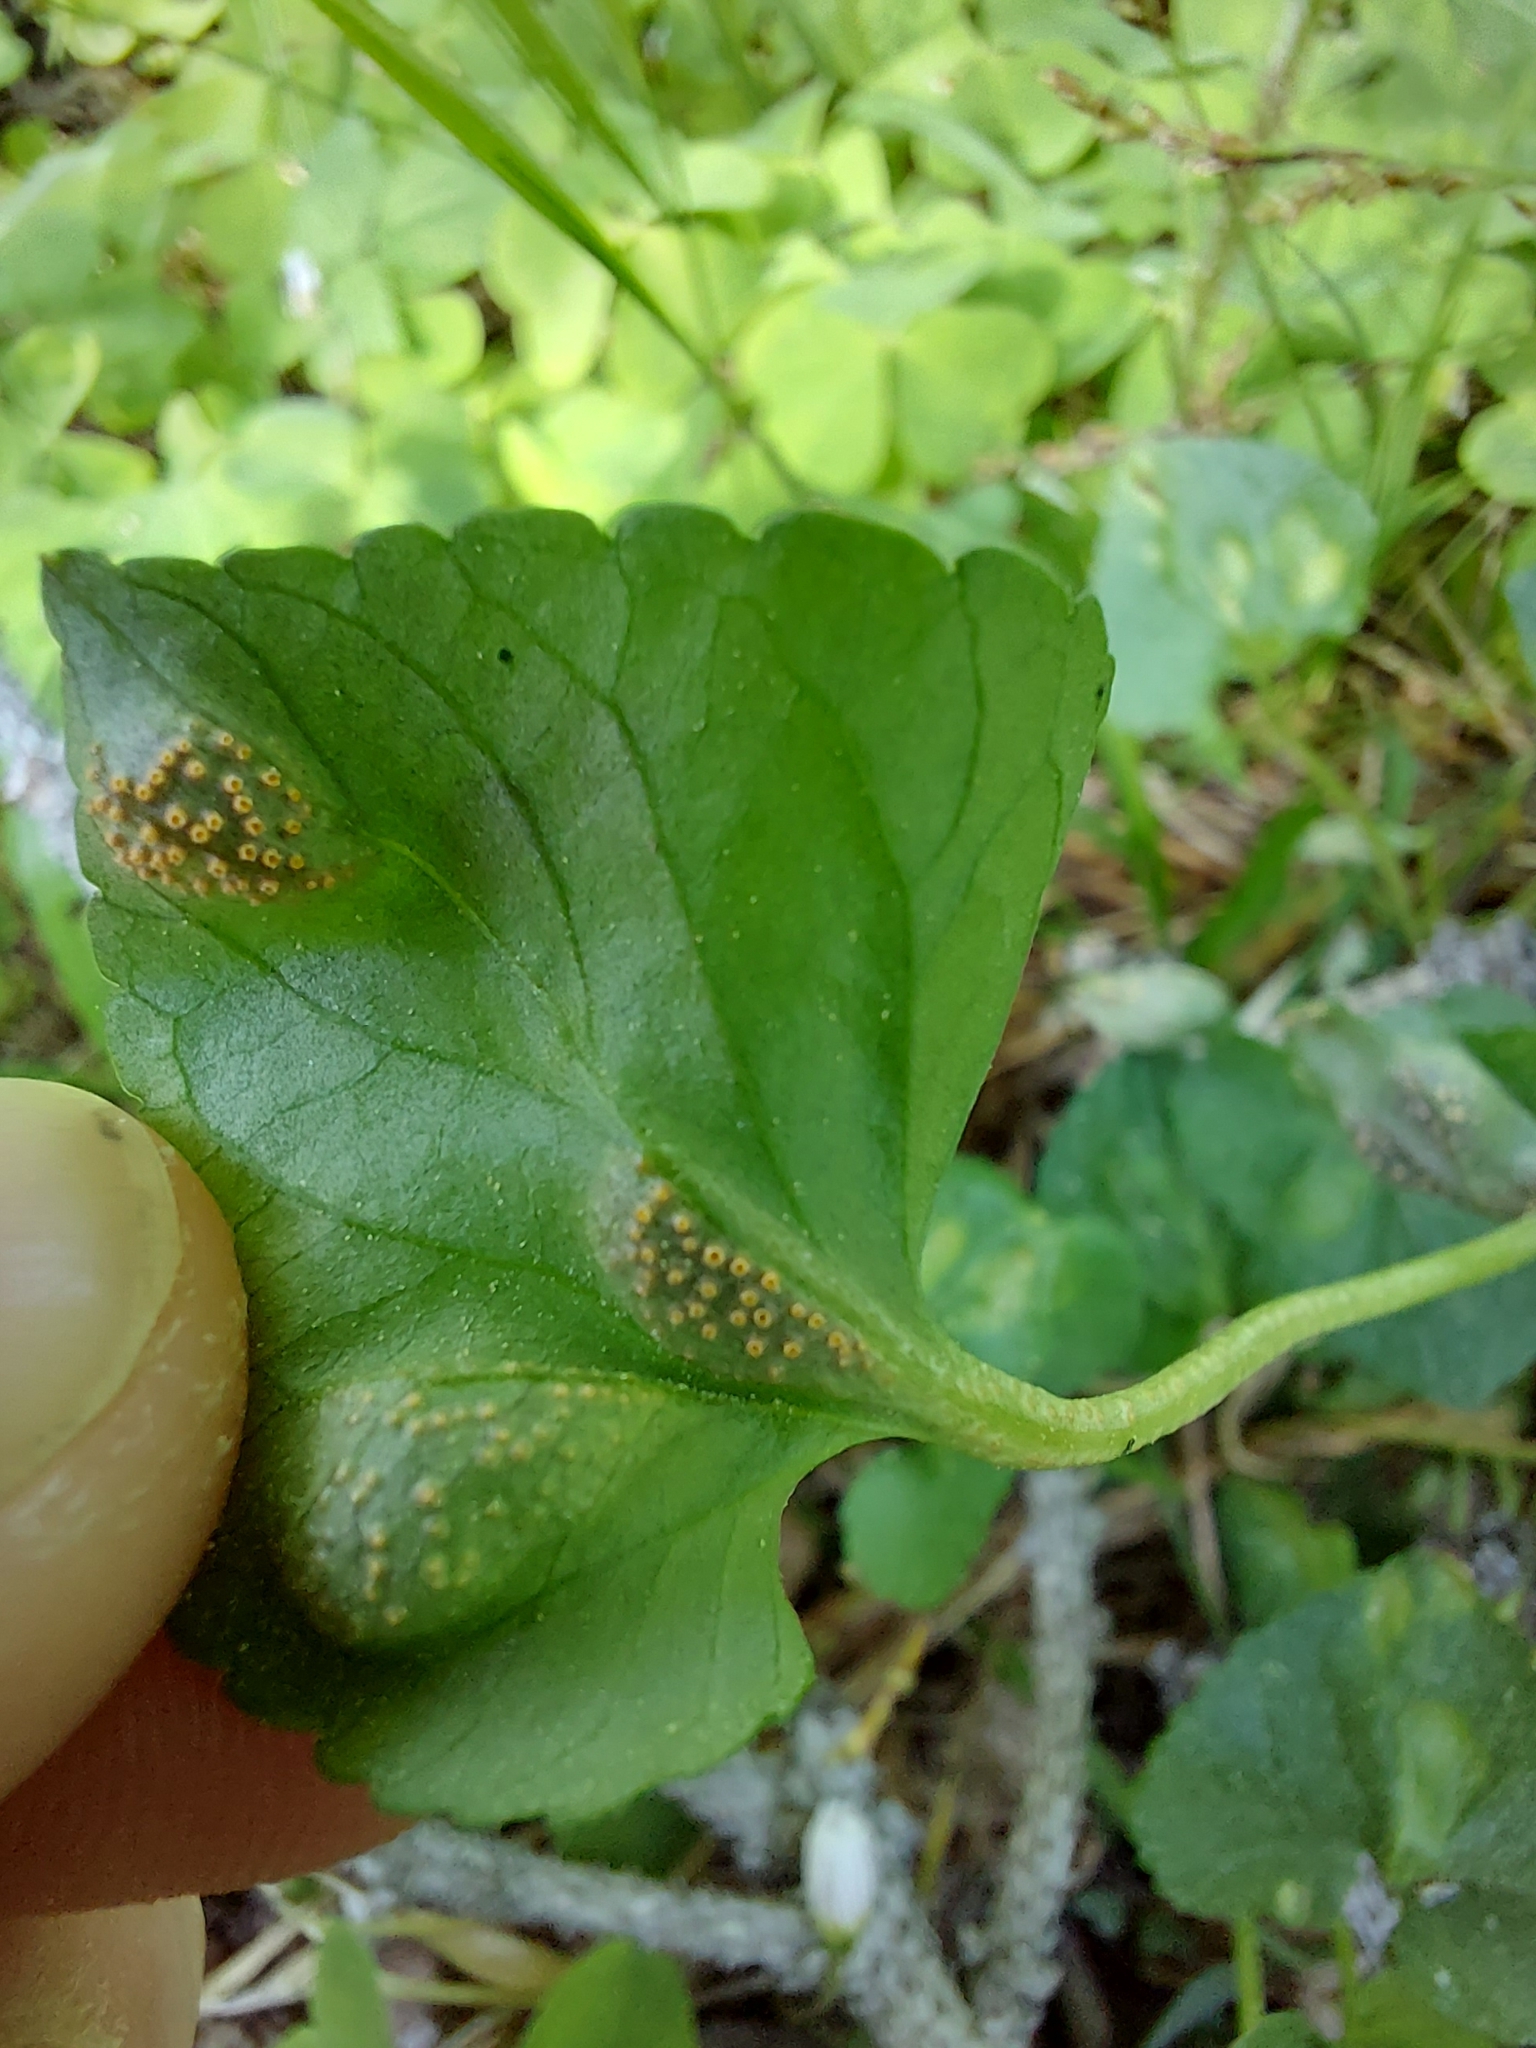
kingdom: Fungi
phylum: Basidiomycota
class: Pucciniomycetes
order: Pucciniales
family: Pucciniaceae
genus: Puccinia
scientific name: Puccinia violae
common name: Violet rust
